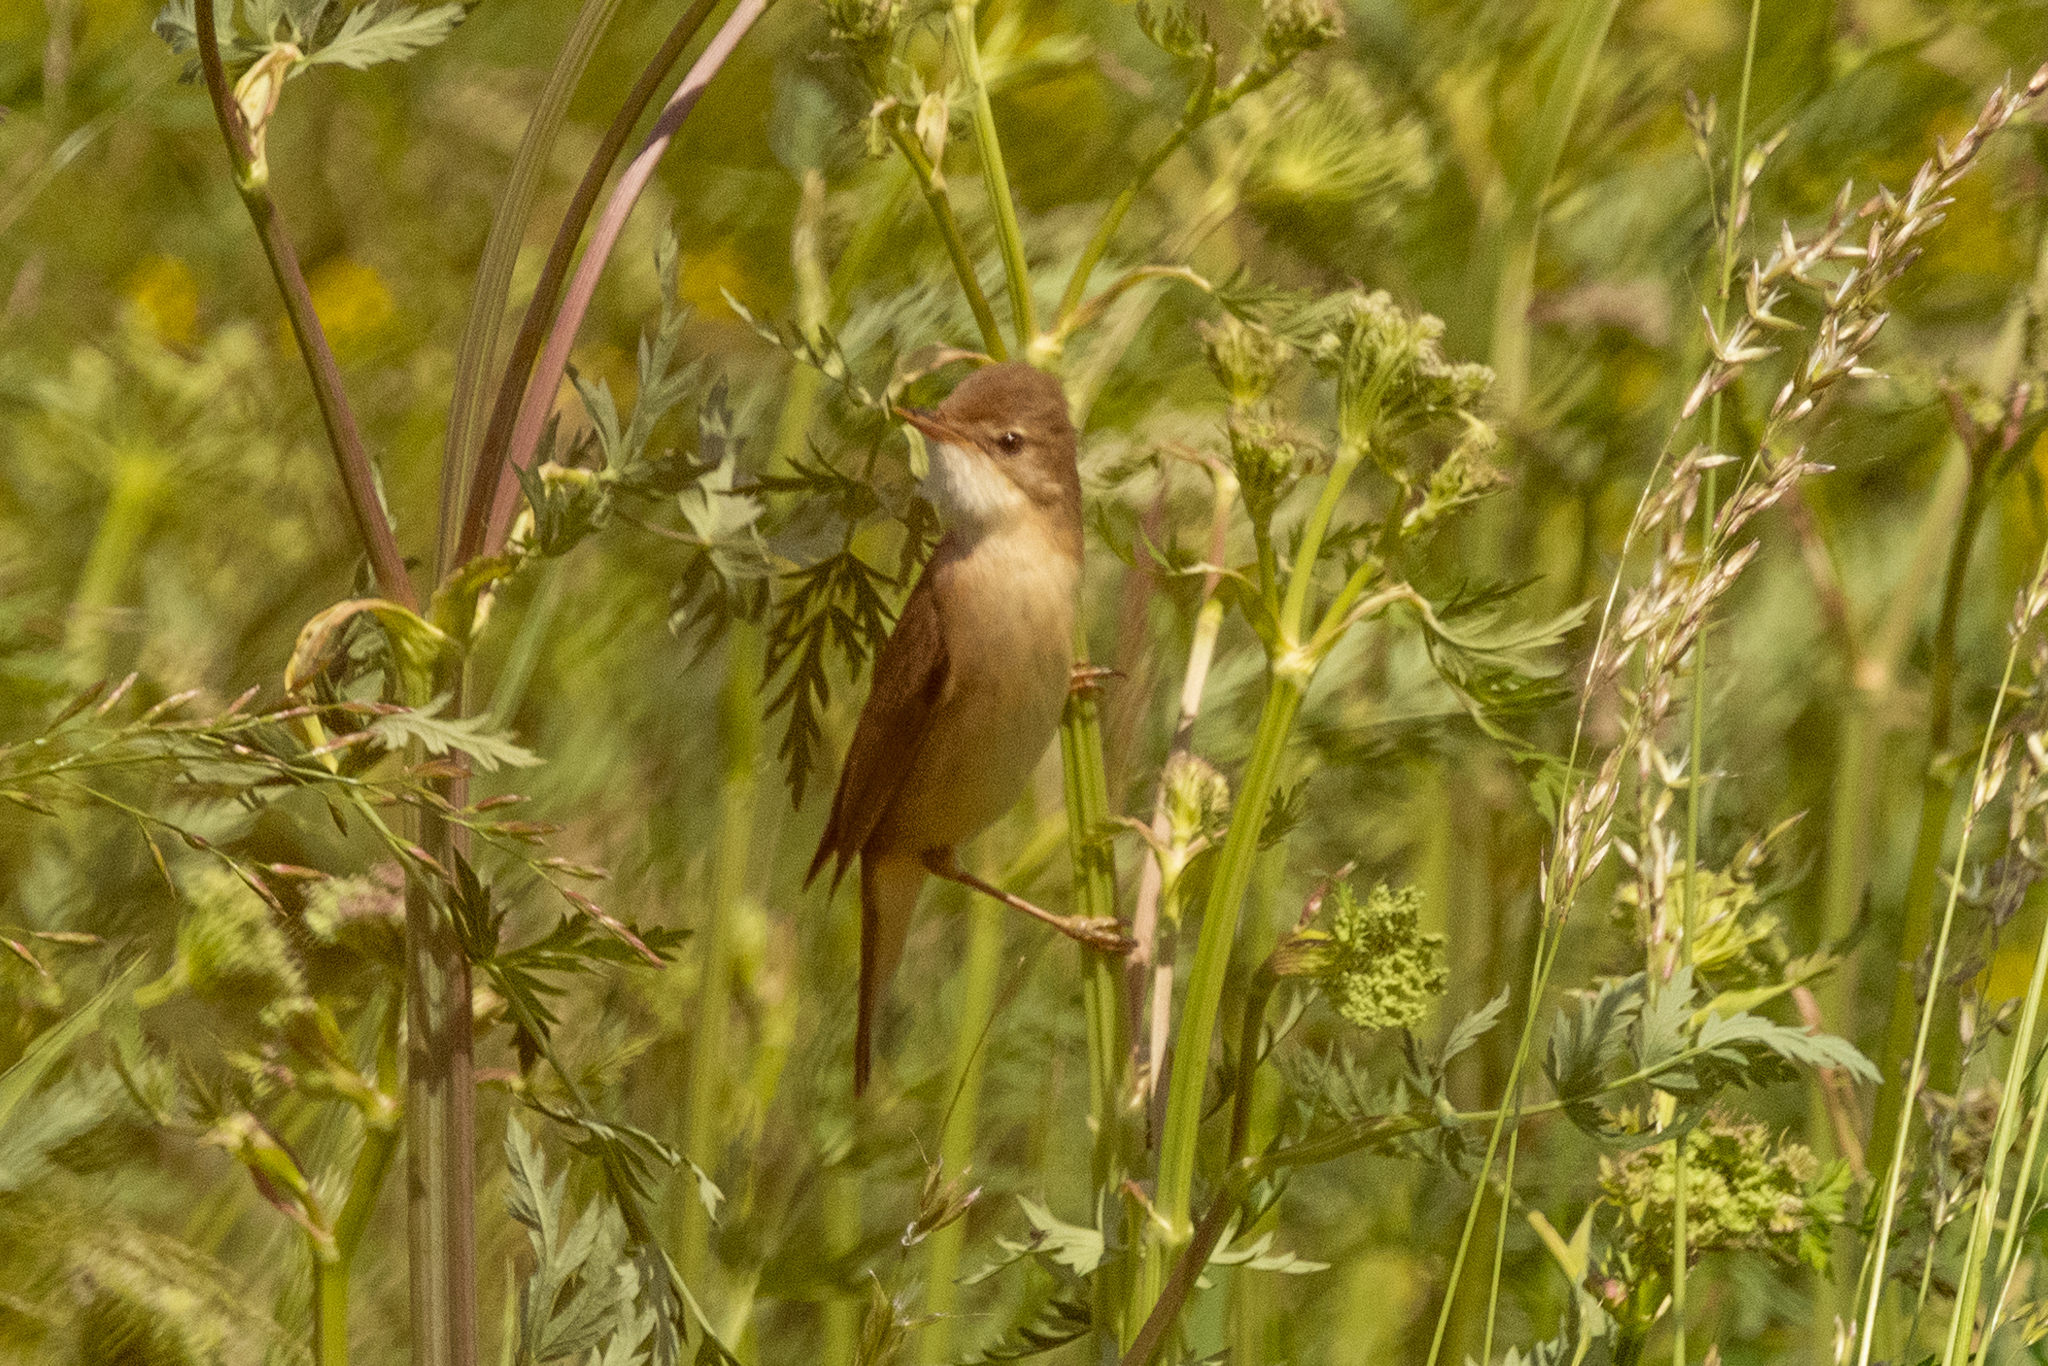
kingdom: Animalia
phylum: Chordata
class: Aves
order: Passeriformes
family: Acrocephalidae
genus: Acrocephalus
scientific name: Acrocephalus palustris
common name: Marsh warbler
